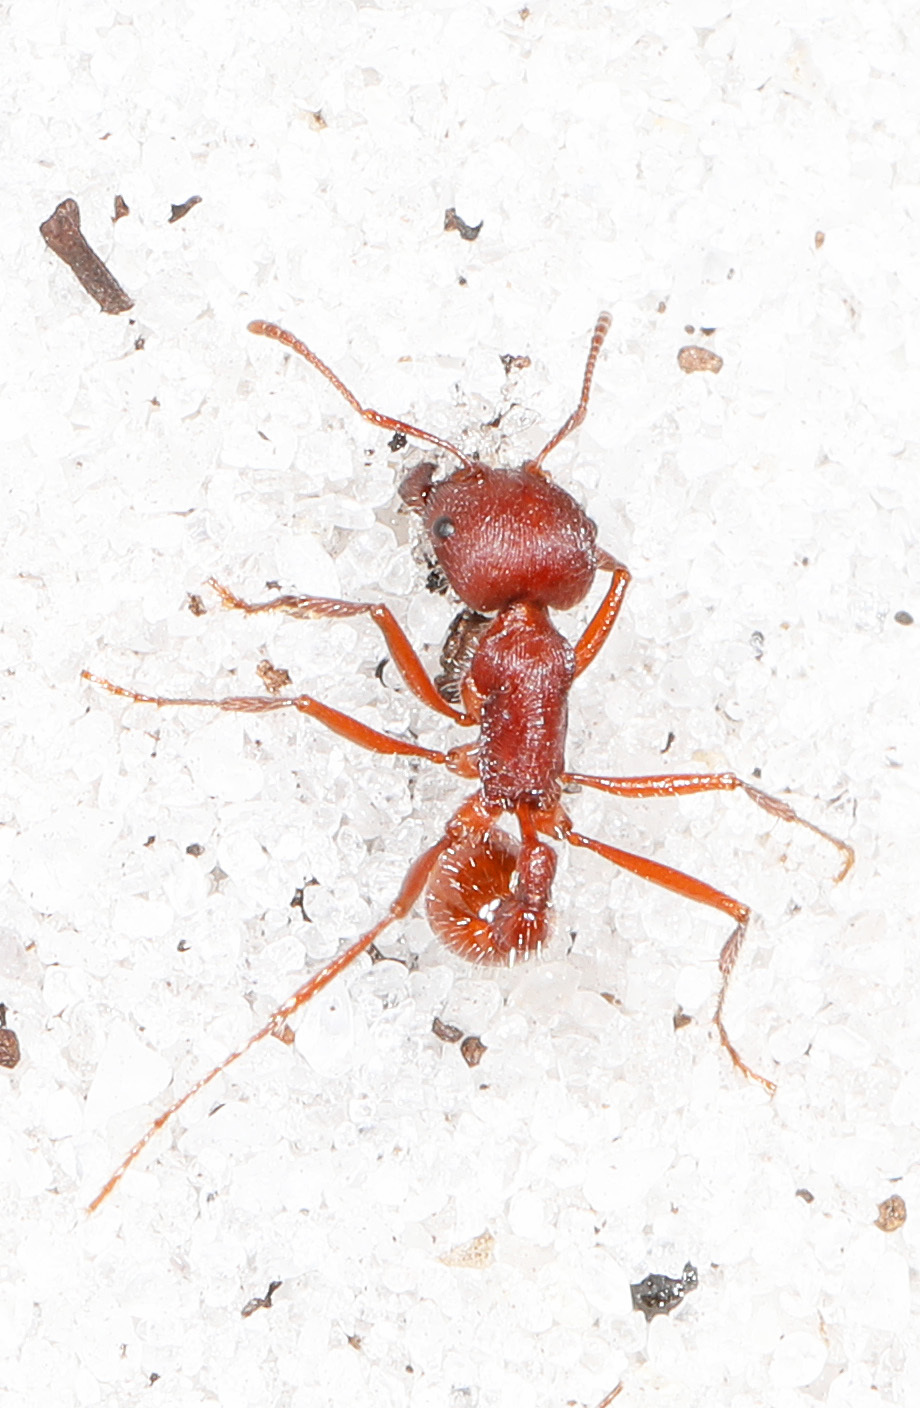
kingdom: Animalia
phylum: Arthropoda
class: Insecta
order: Hymenoptera
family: Formicidae
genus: Pogonomyrmex
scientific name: Pogonomyrmex badius
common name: Florida harvester ant
